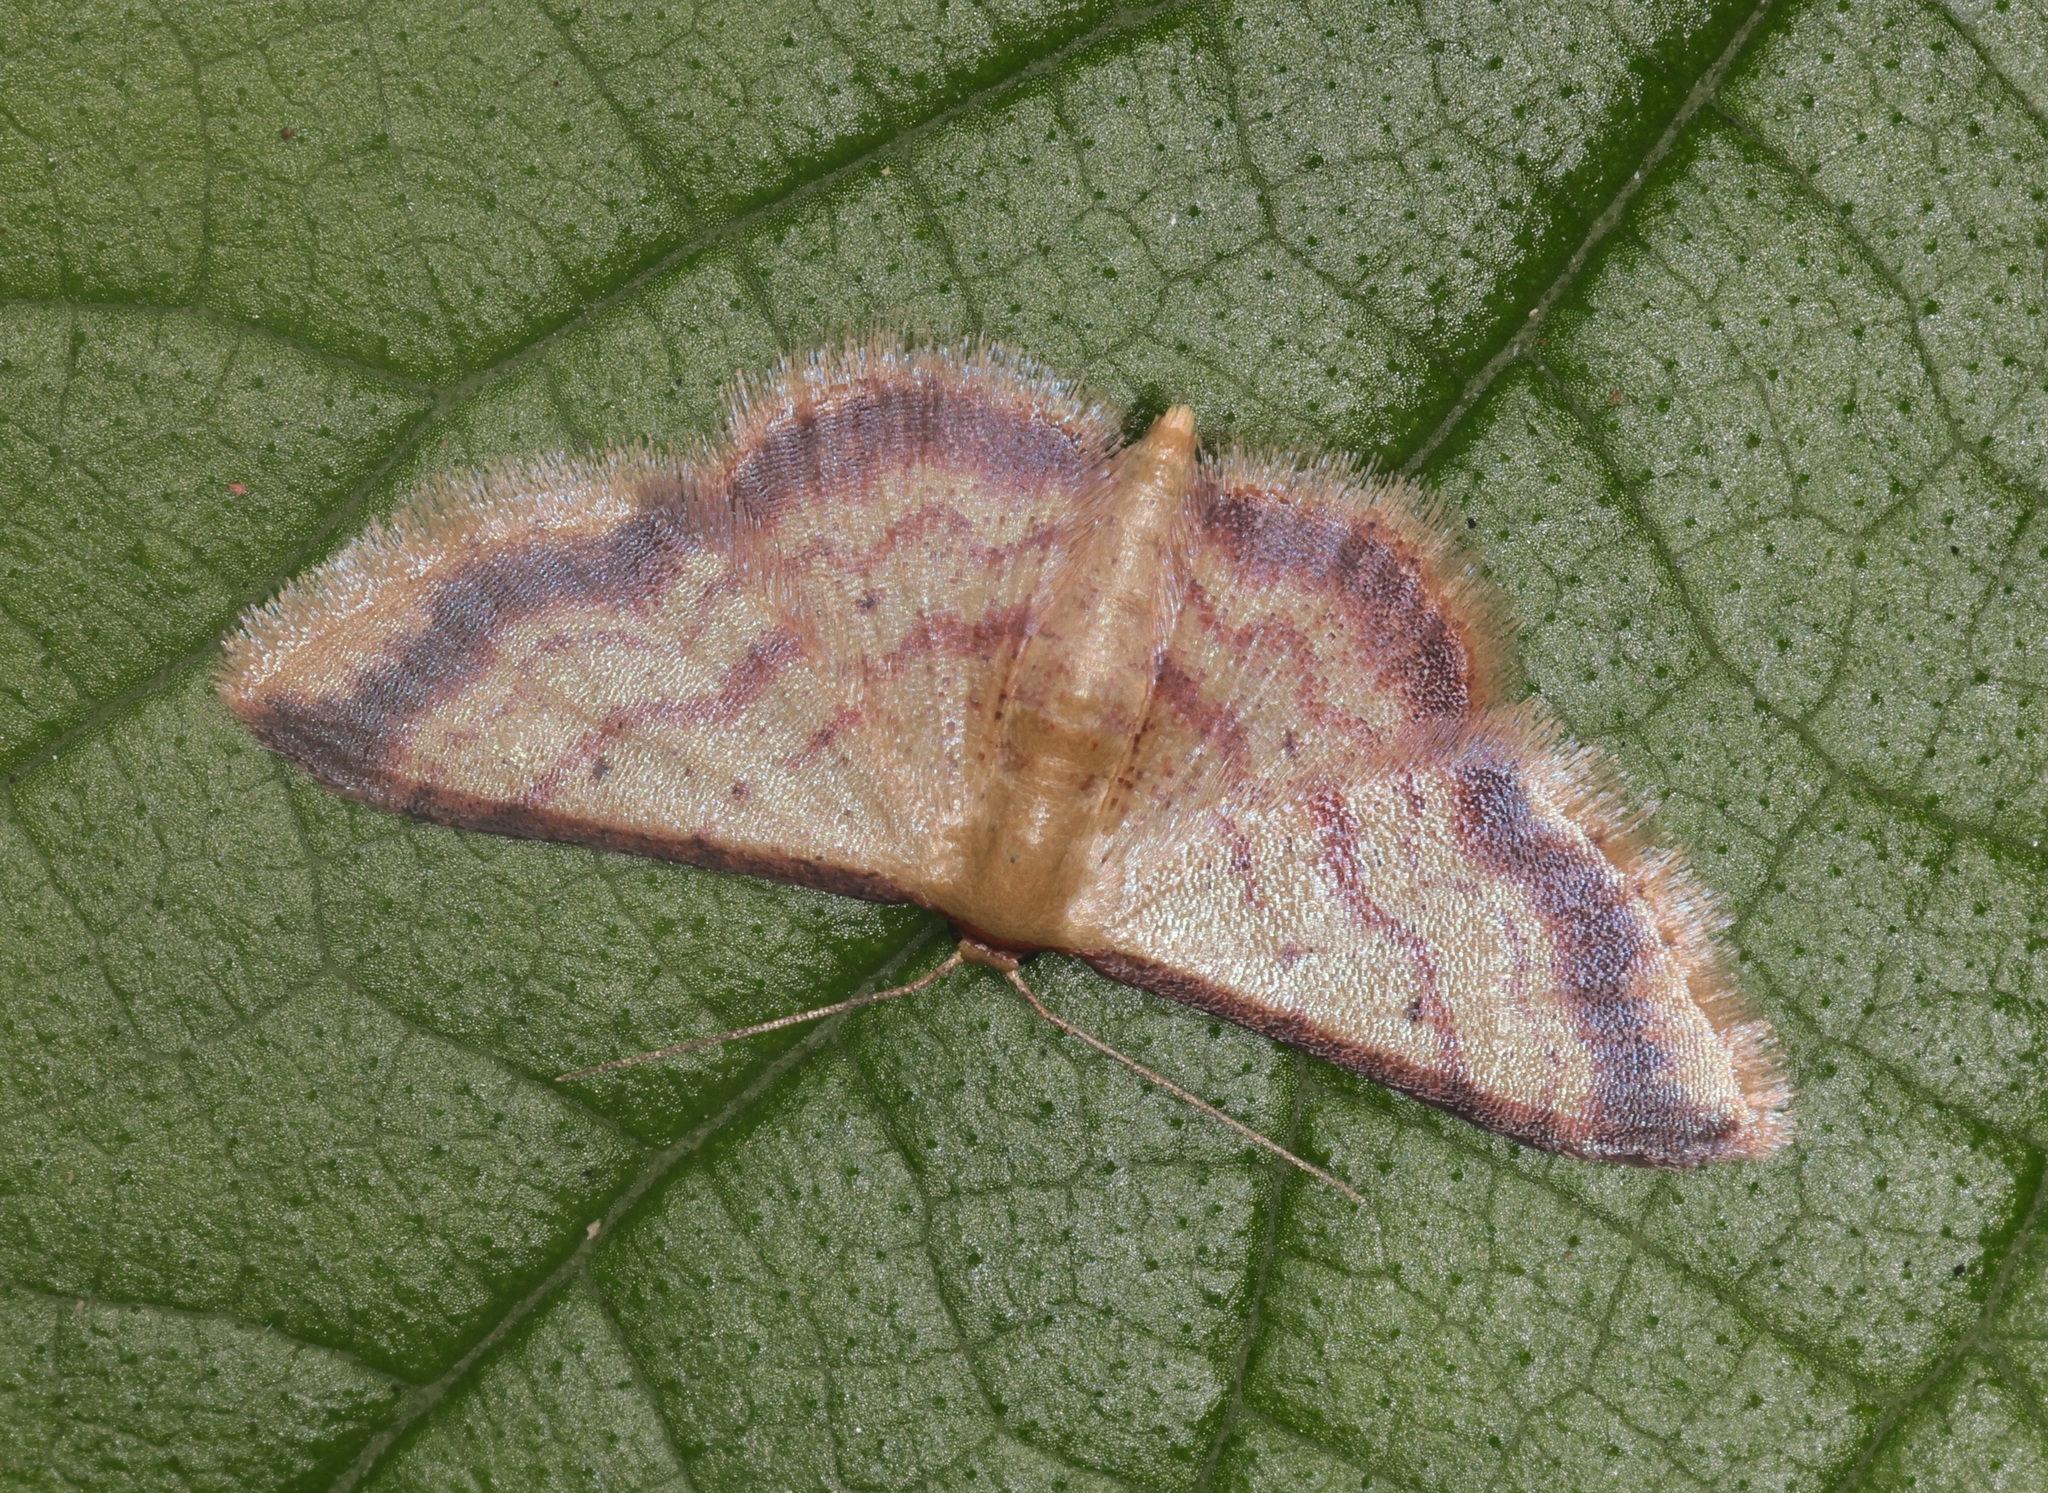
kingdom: Animalia
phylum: Arthropoda
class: Insecta
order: Lepidoptera
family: Geometridae
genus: Idaea
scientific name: Idaea impexa
